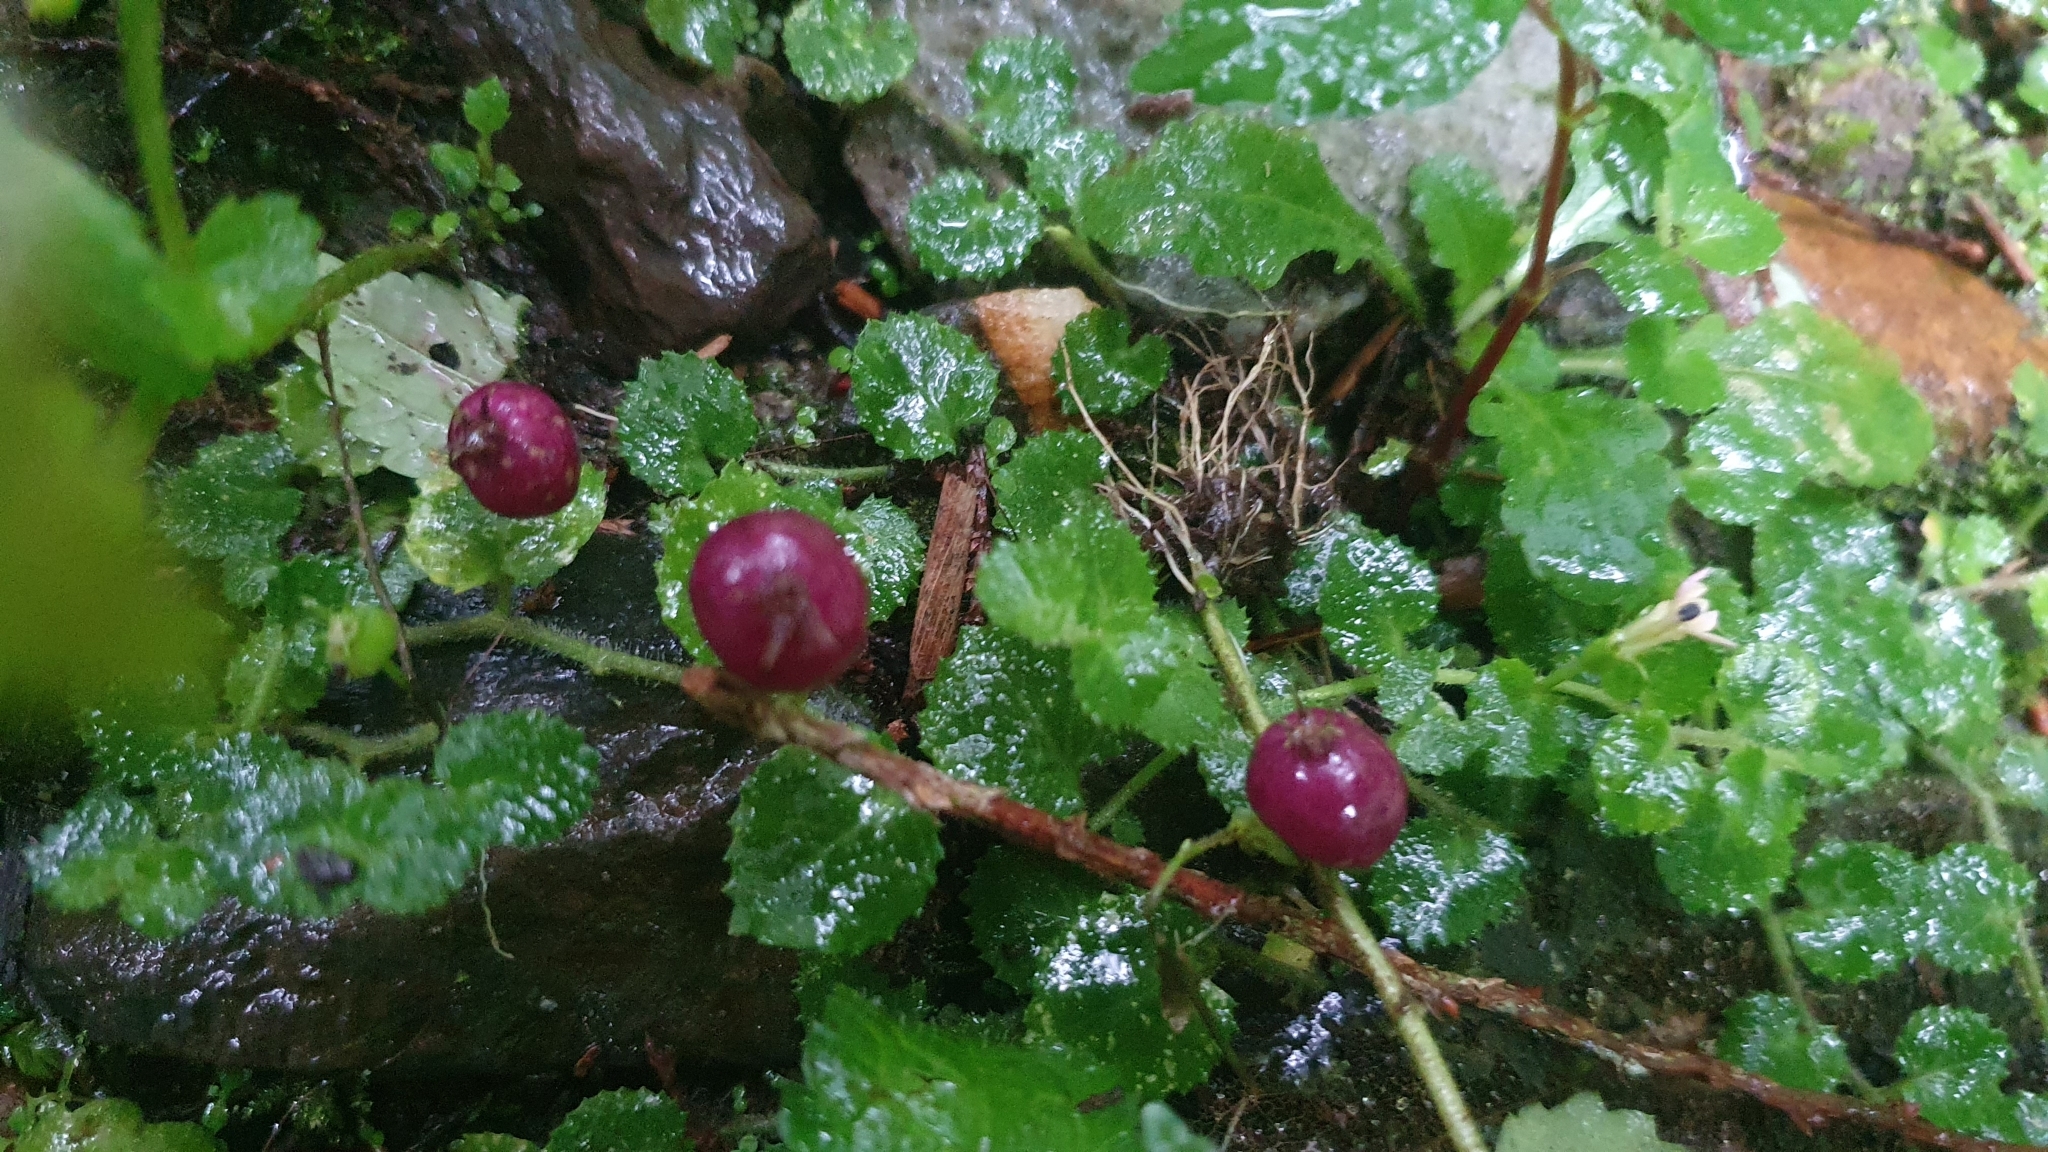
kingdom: Plantae
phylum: Tracheophyta
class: Magnoliopsida
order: Asterales
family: Campanulaceae
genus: Lobelia
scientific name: Lobelia nummularia
